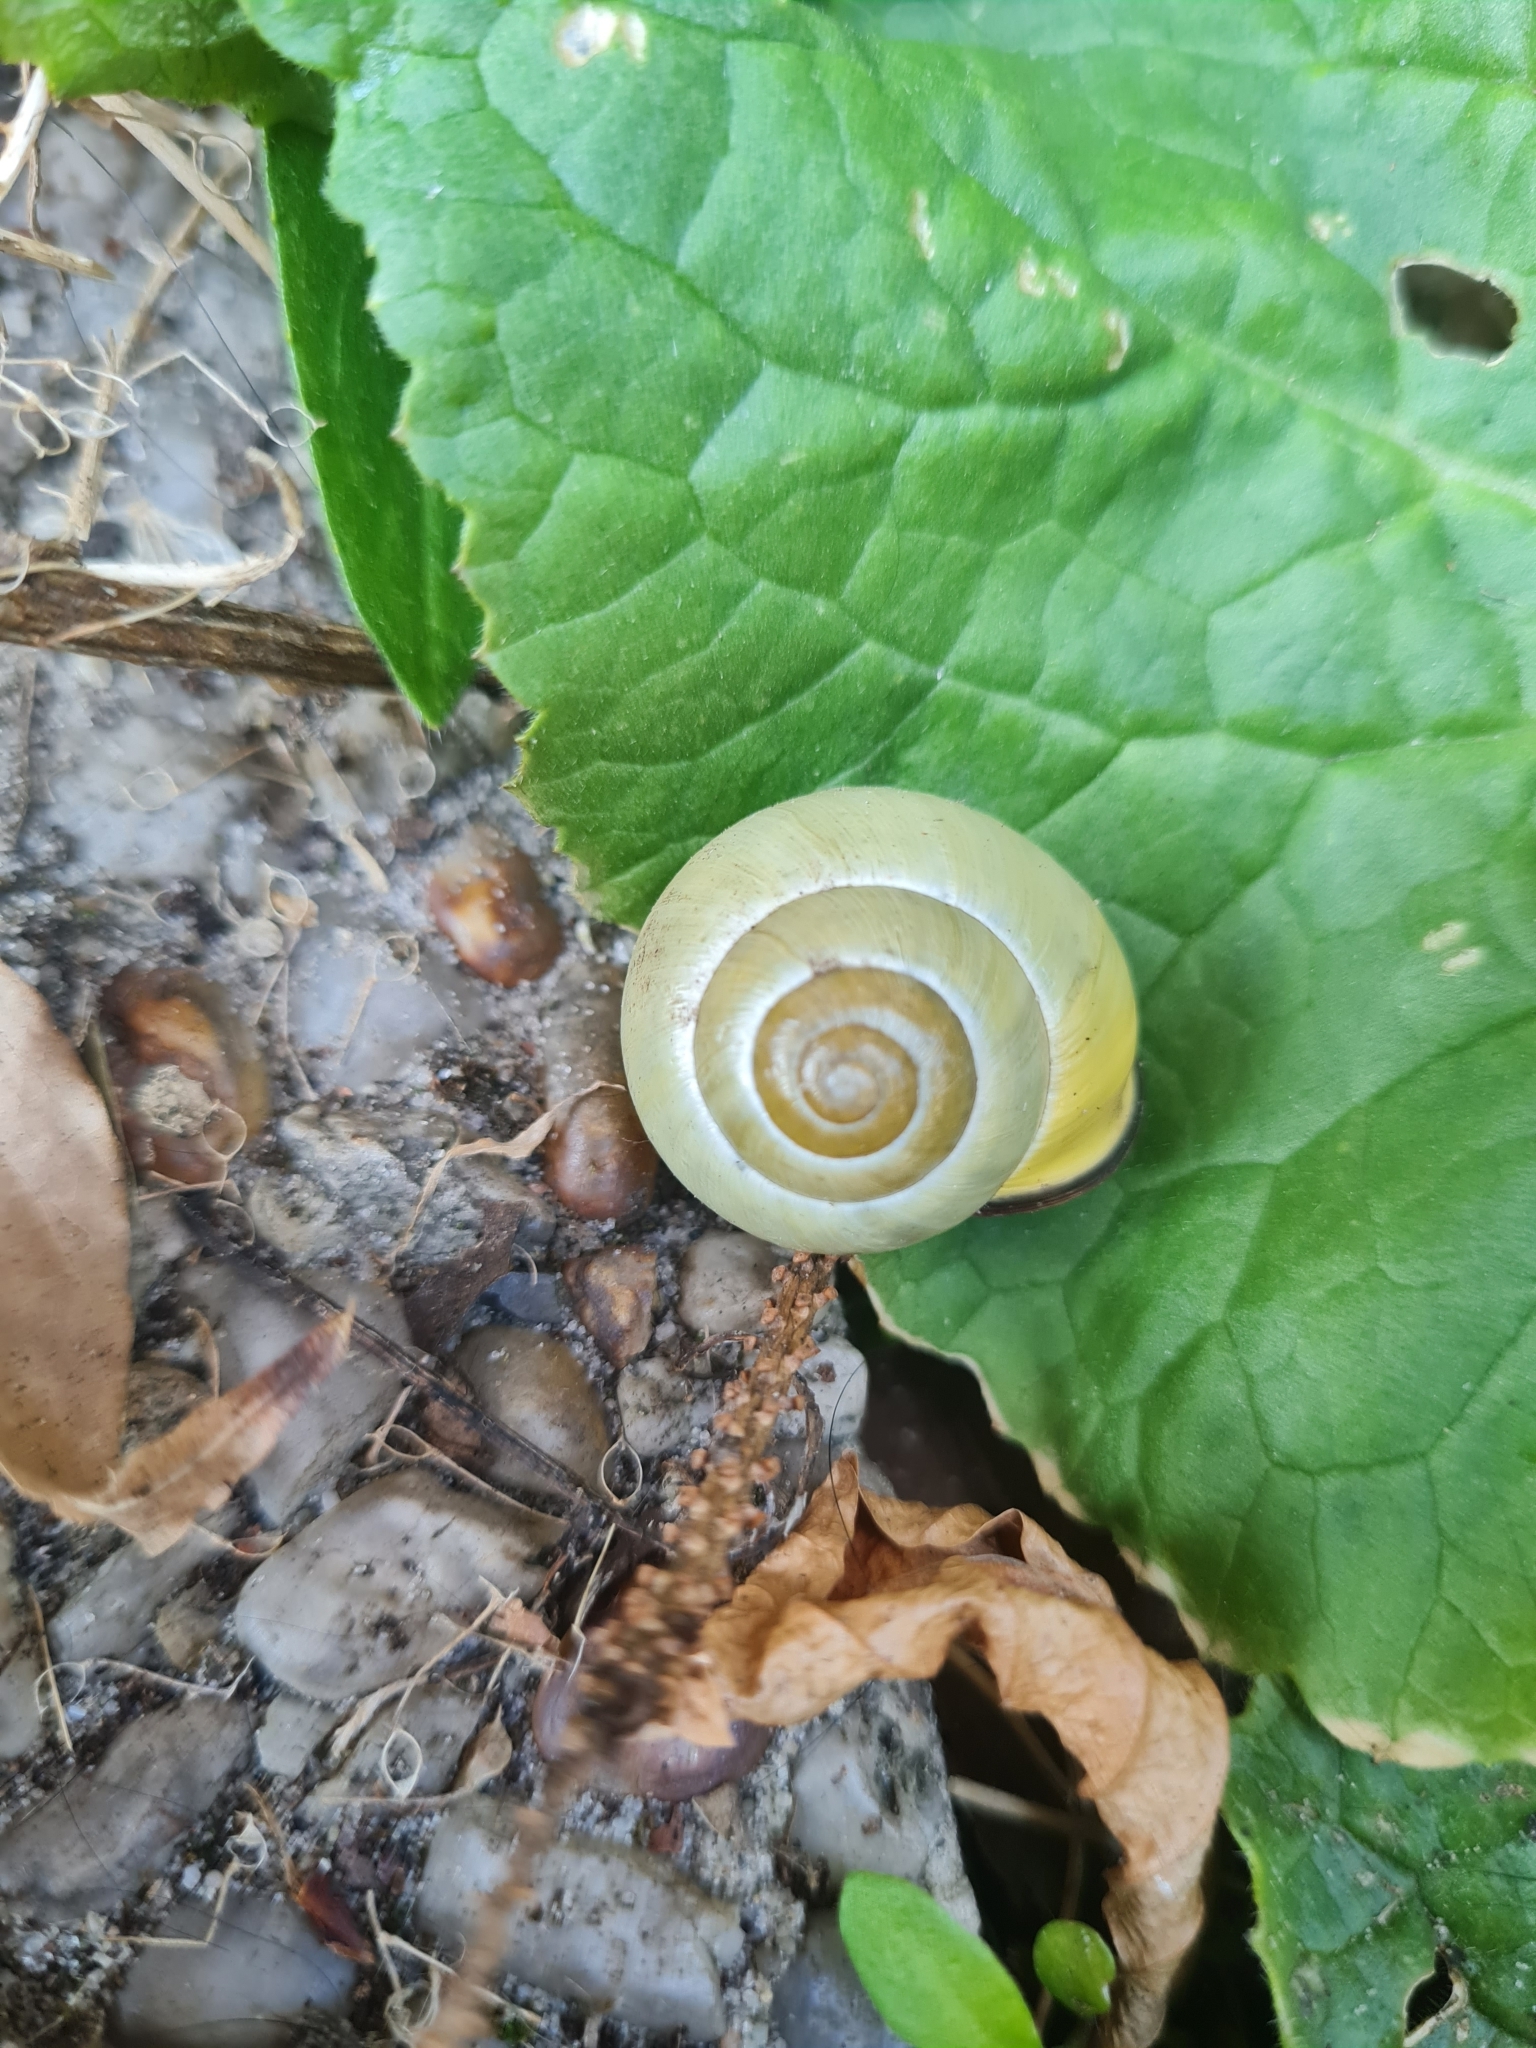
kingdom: Animalia
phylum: Mollusca
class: Gastropoda
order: Stylommatophora
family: Helicidae
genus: Cepaea
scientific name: Cepaea nemoralis
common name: Grovesnail
